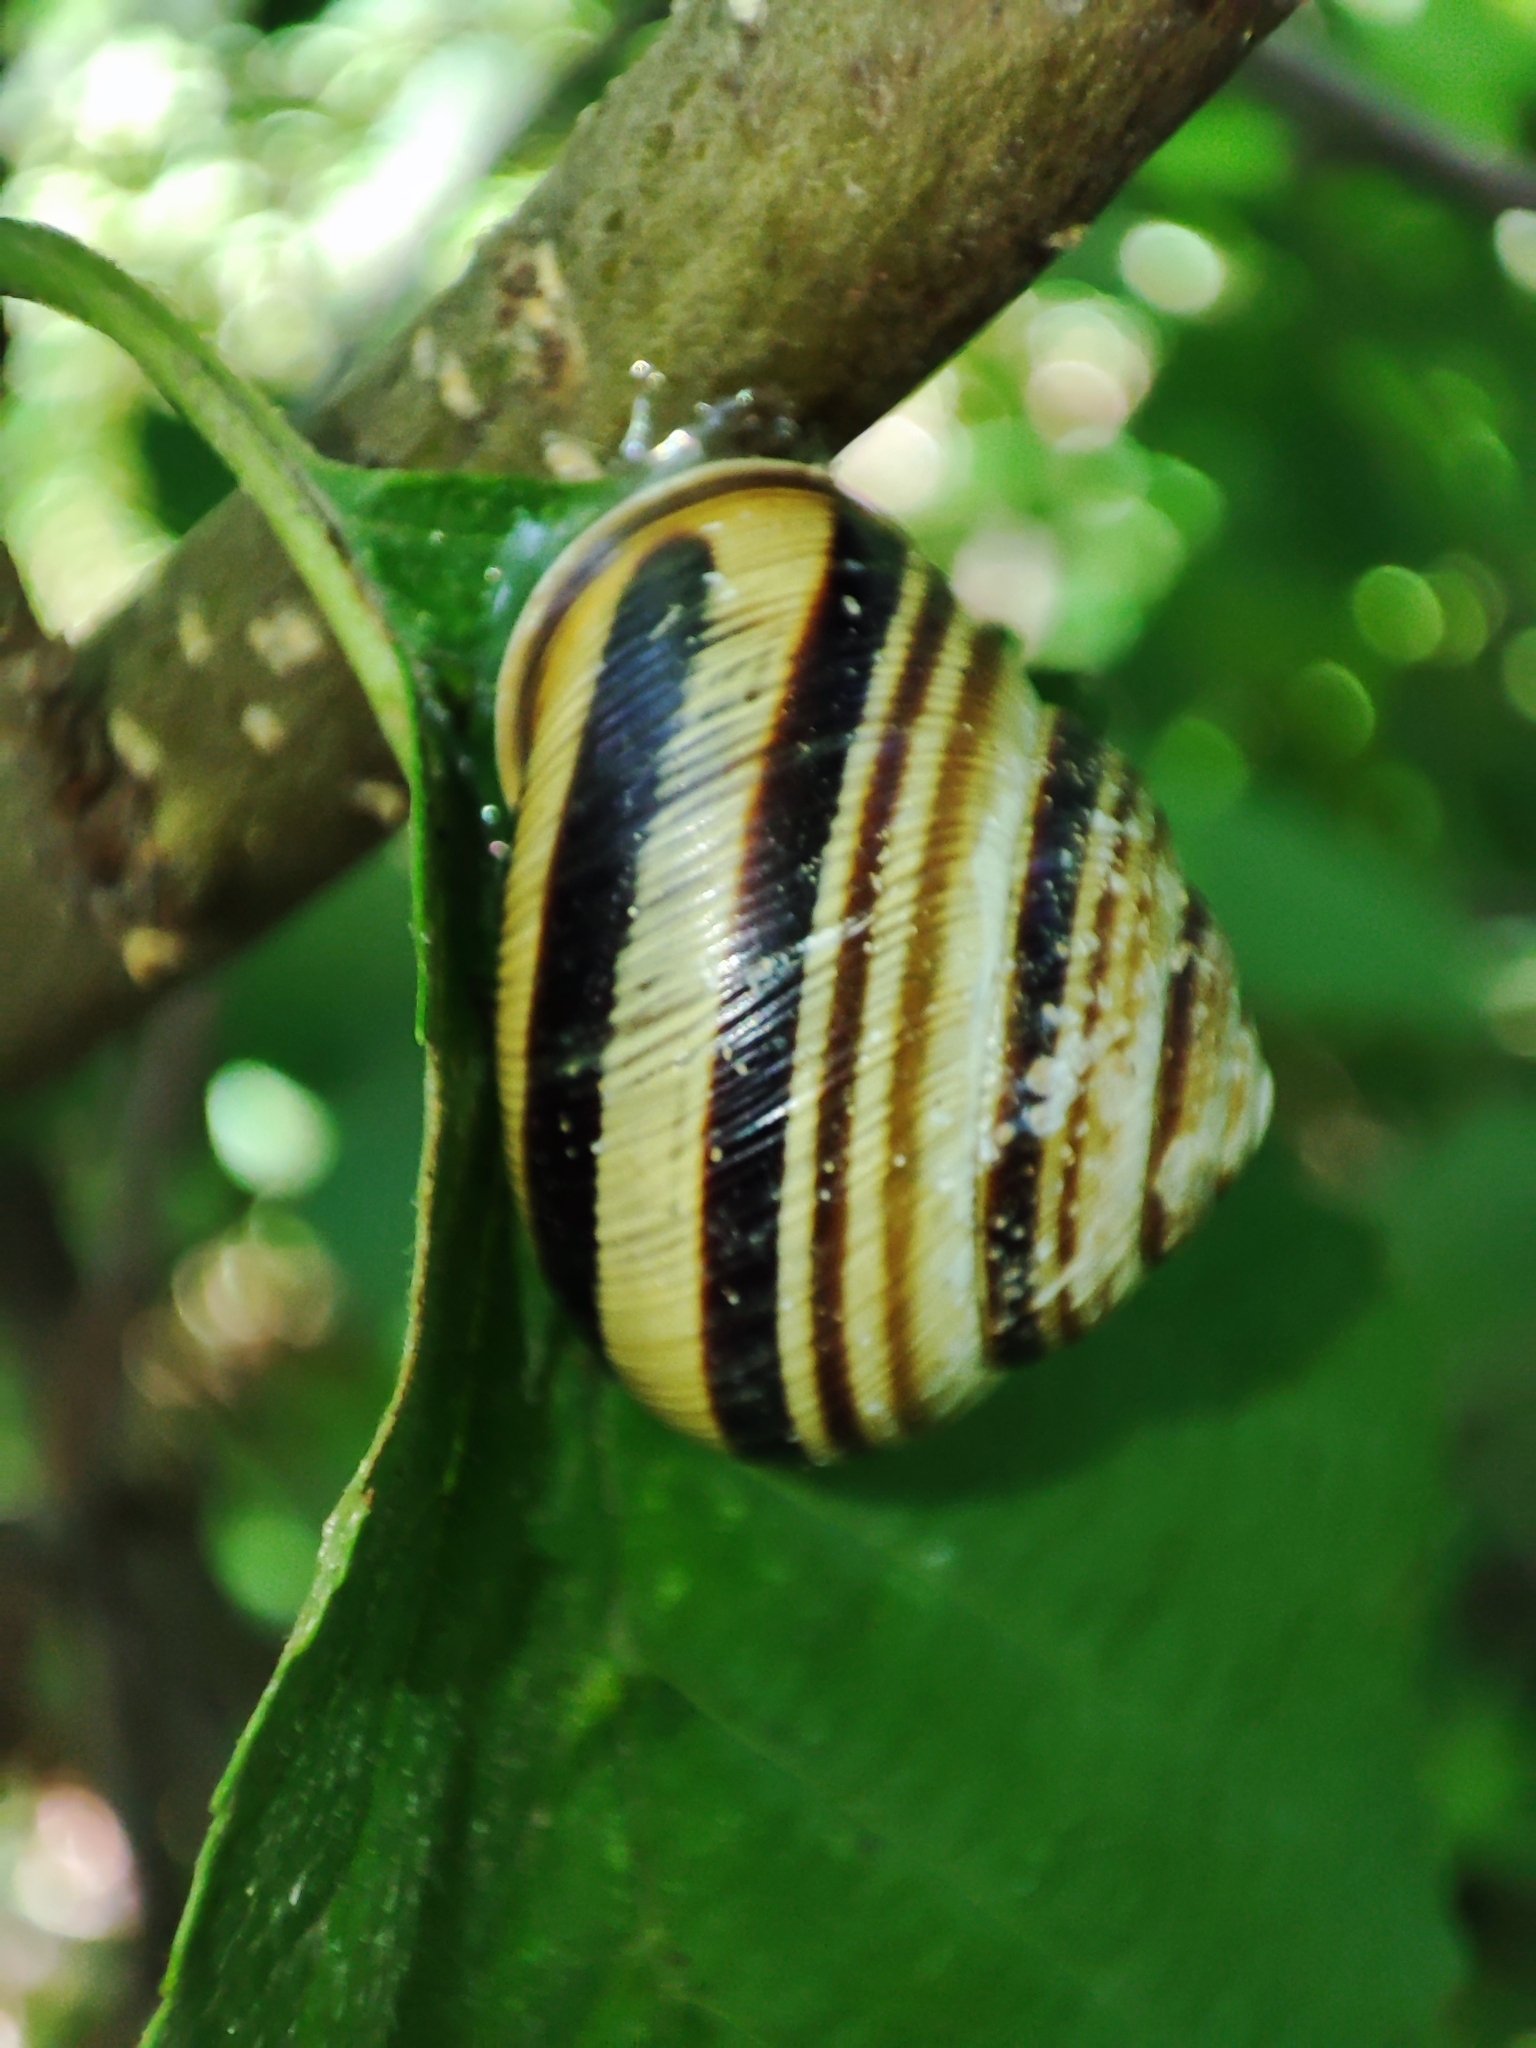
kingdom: Animalia
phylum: Mollusca
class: Gastropoda
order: Stylommatophora
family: Helicidae
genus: Caucasotachea
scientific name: Caucasotachea vindobonensis
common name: European helicid land snail
